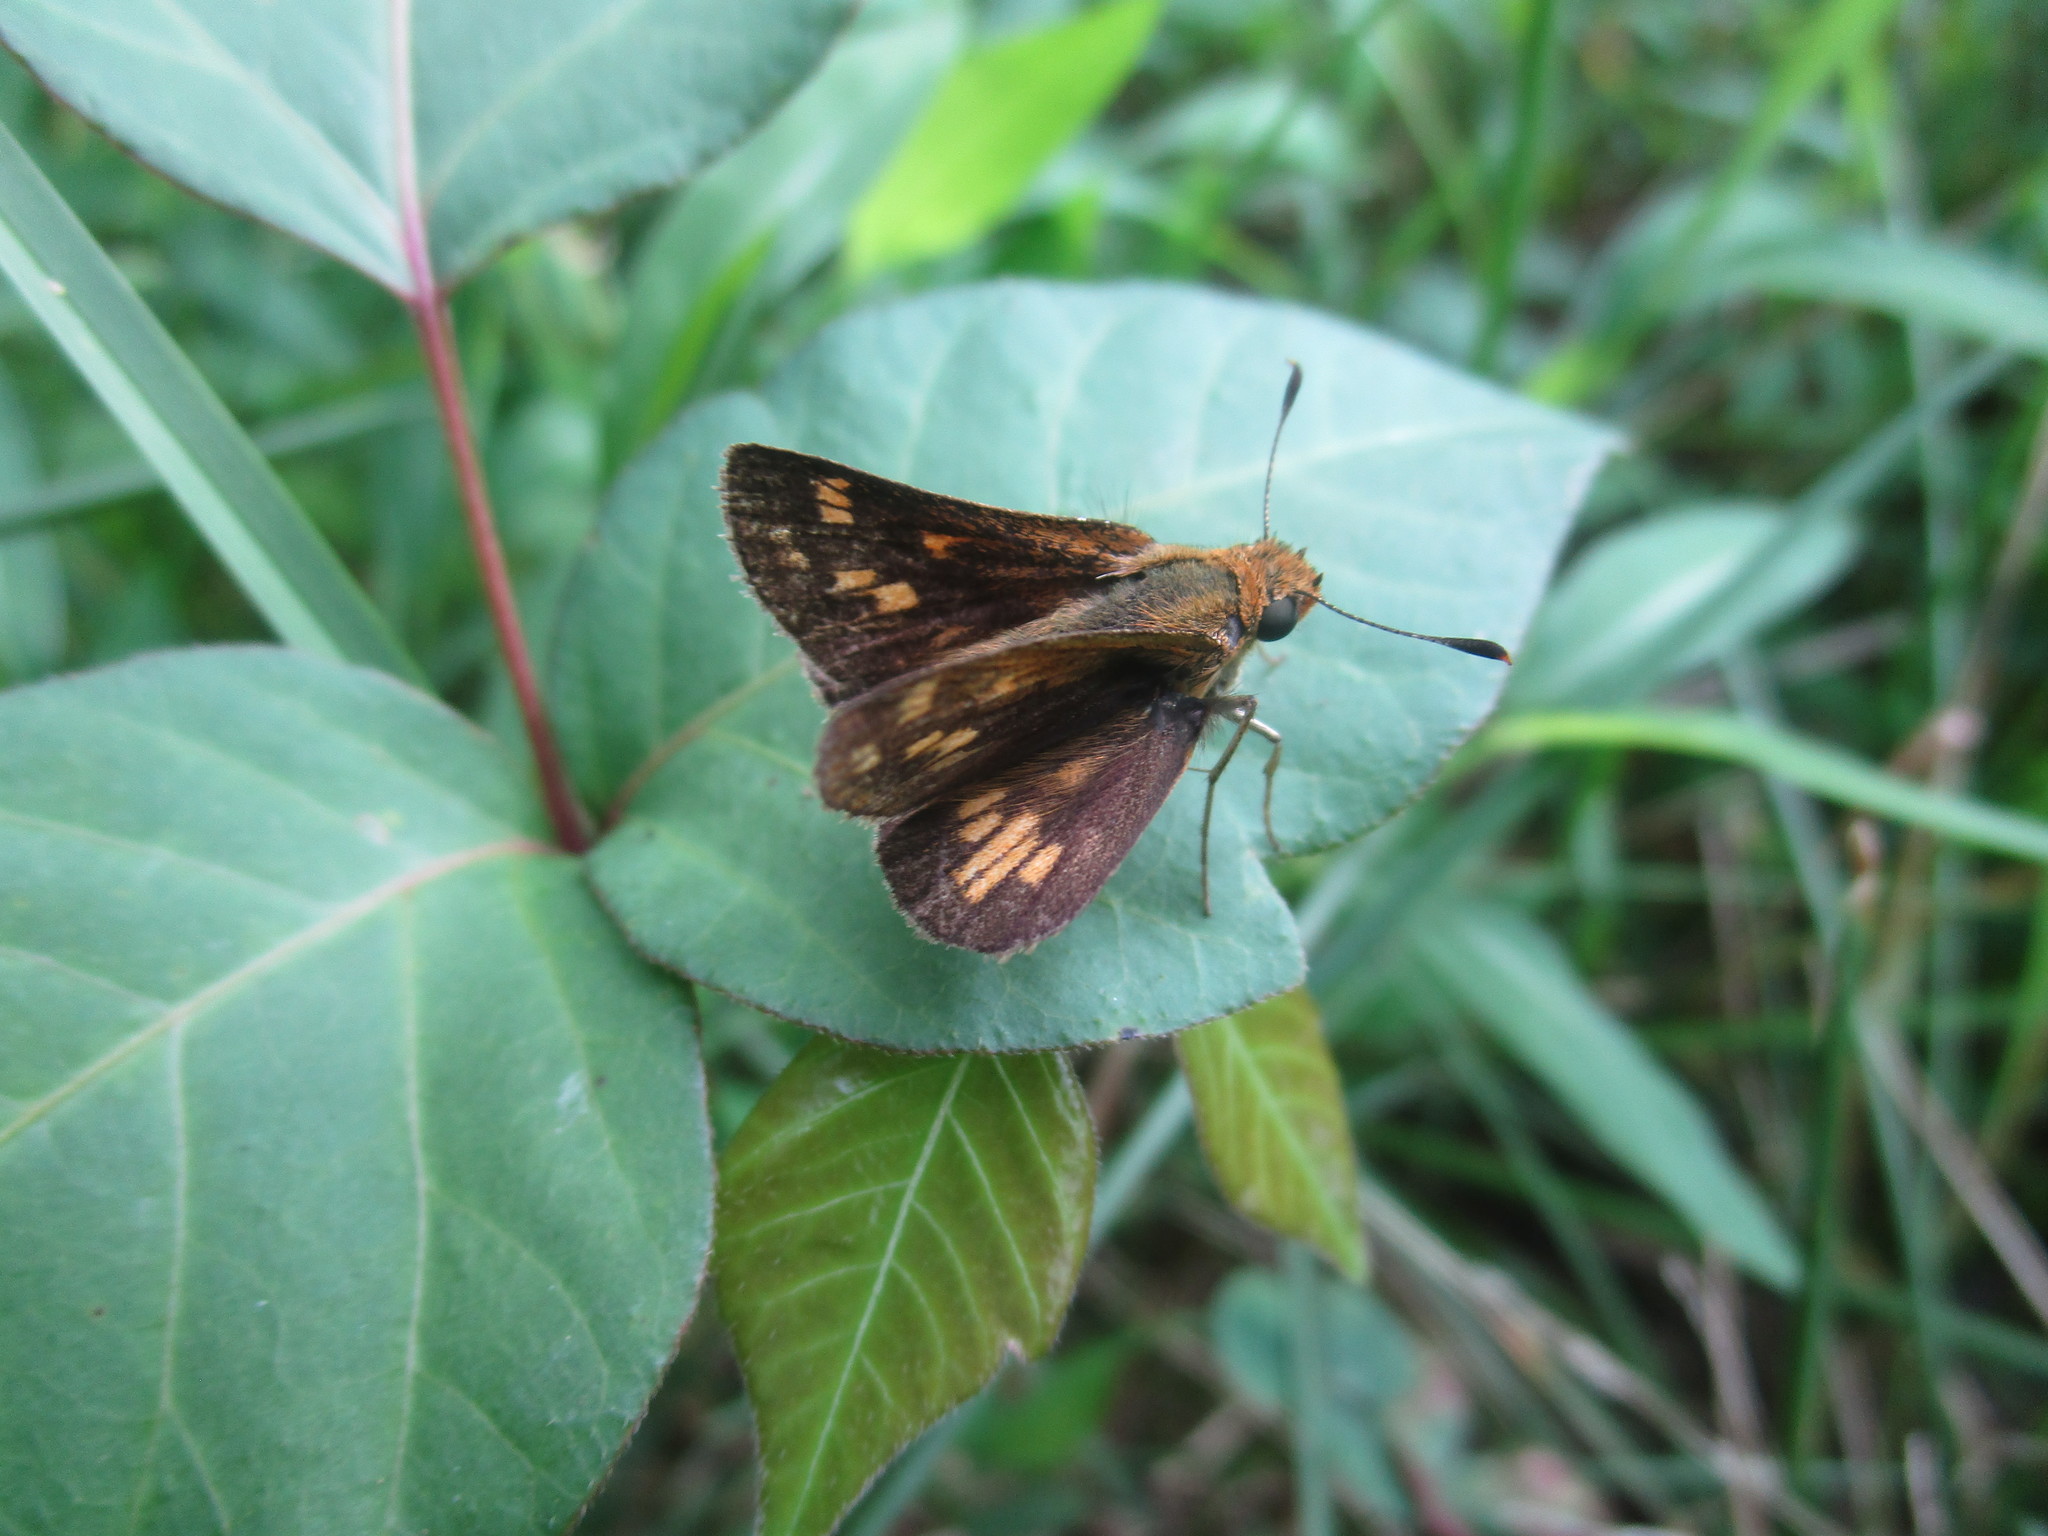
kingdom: Animalia
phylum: Arthropoda
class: Insecta
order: Lepidoptera
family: Hesperiidae
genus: Polites
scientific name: Polites coras
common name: Peck's skipper
